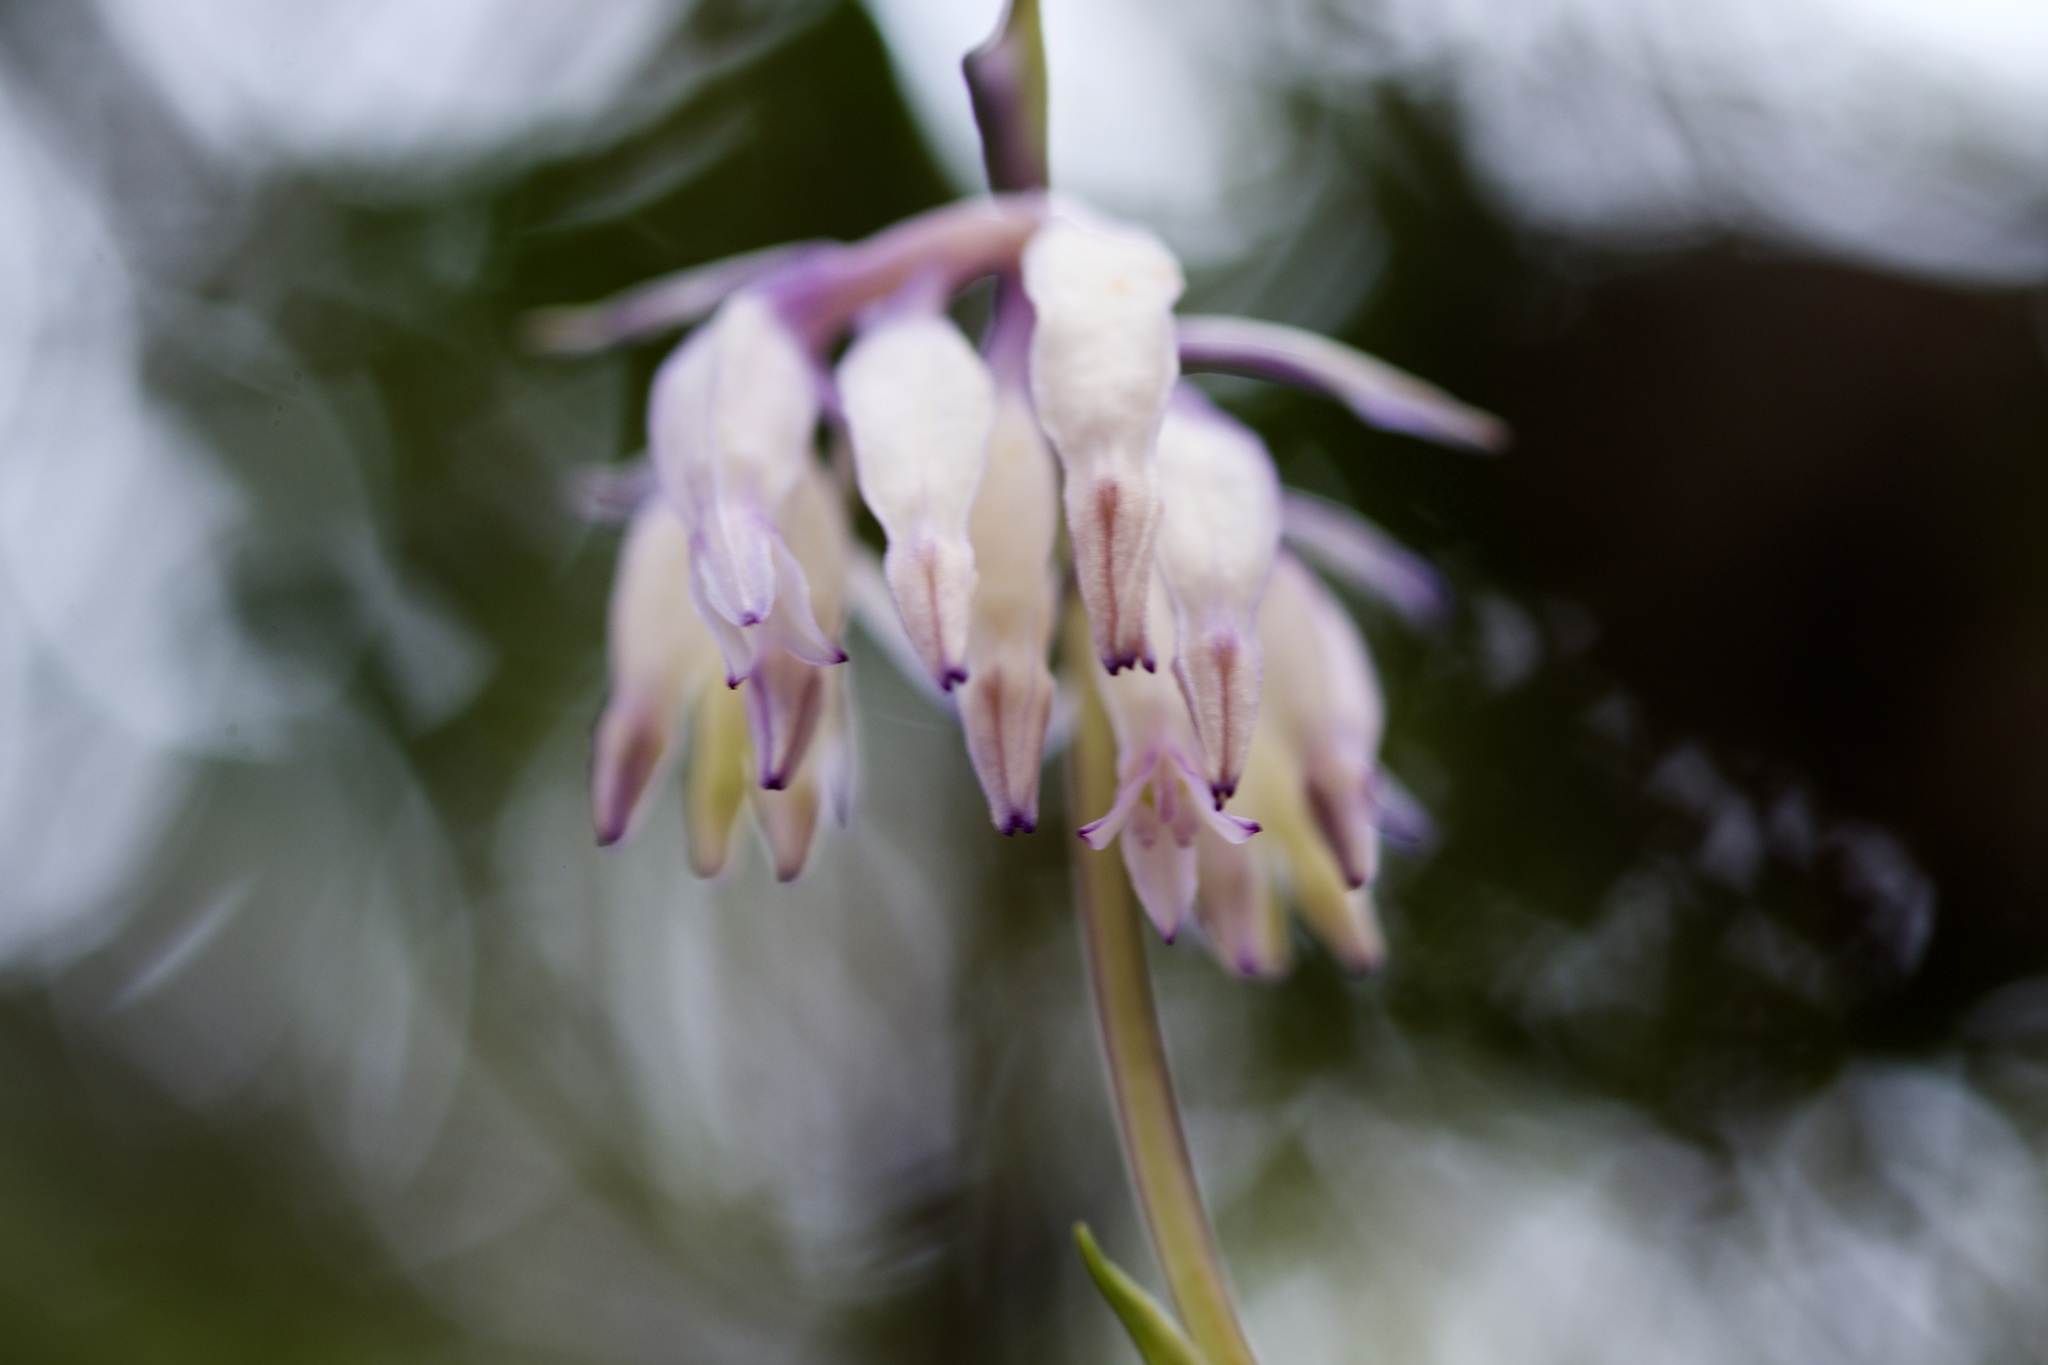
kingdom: Plantae
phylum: Tracheophyta
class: Liliopsida
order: Dioscoreales
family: Burmanniaceae
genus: Burmannia
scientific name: Burmannia longifolia
